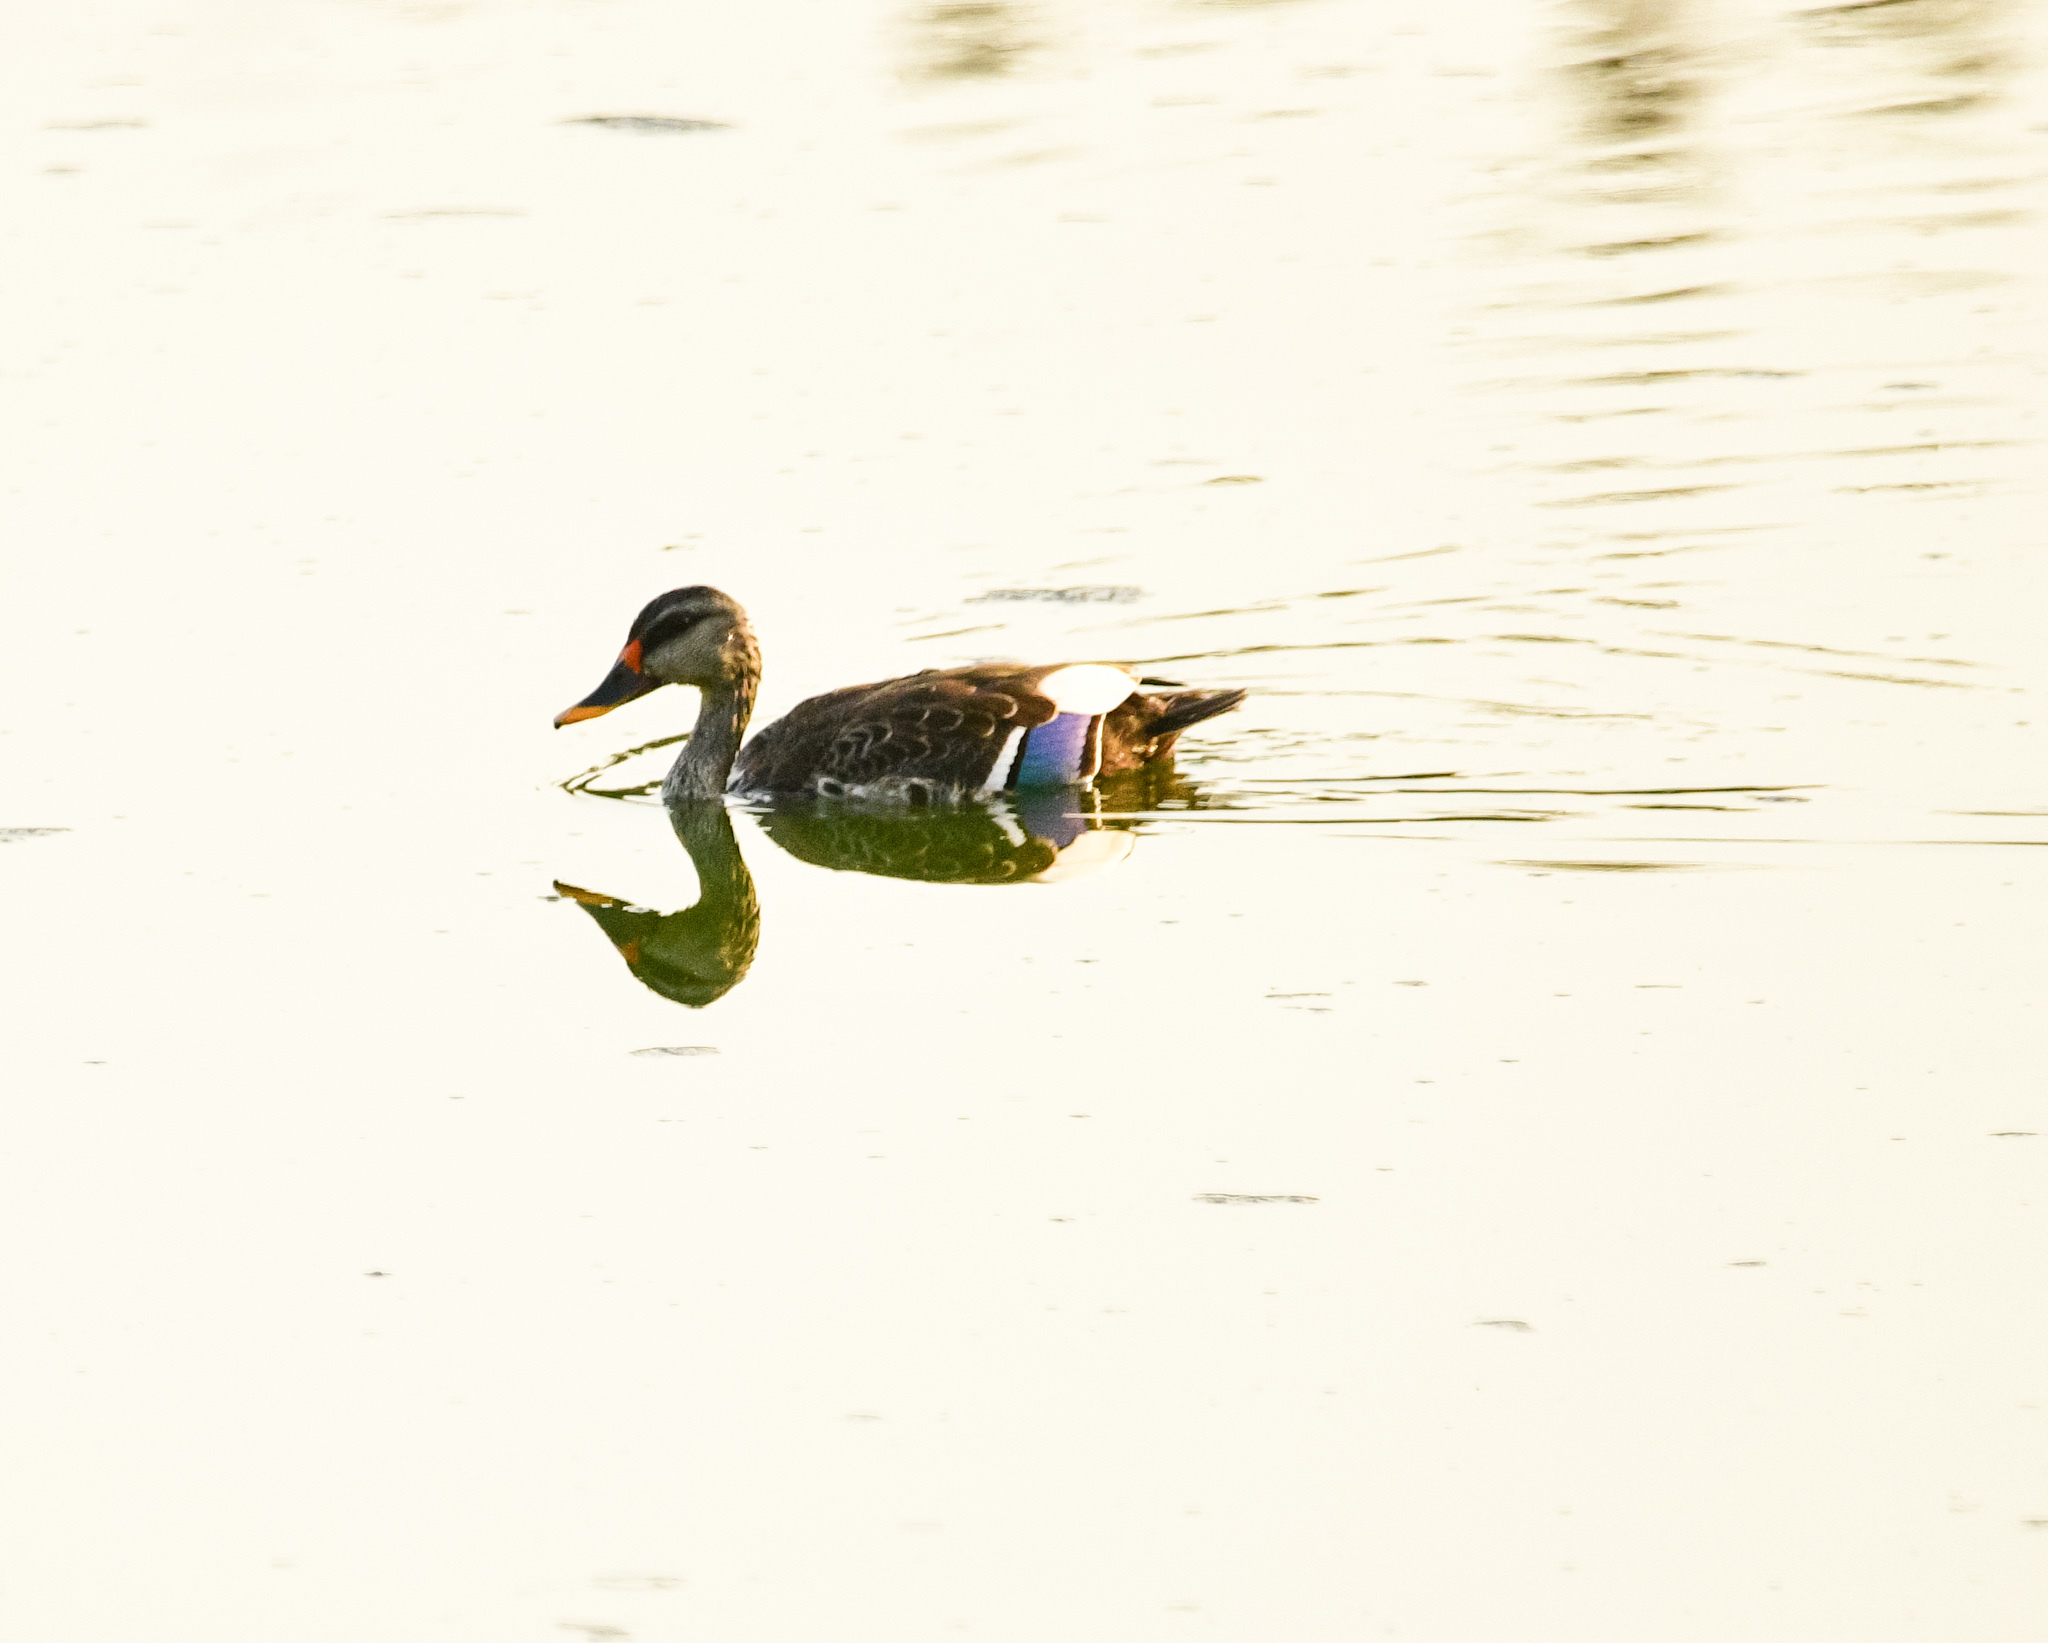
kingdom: Animalia
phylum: Chordata
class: Aves
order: Anseriformes
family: Anatidae
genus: Anas
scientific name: Anas poecilorhyncha
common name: Indian spot-billed duck
